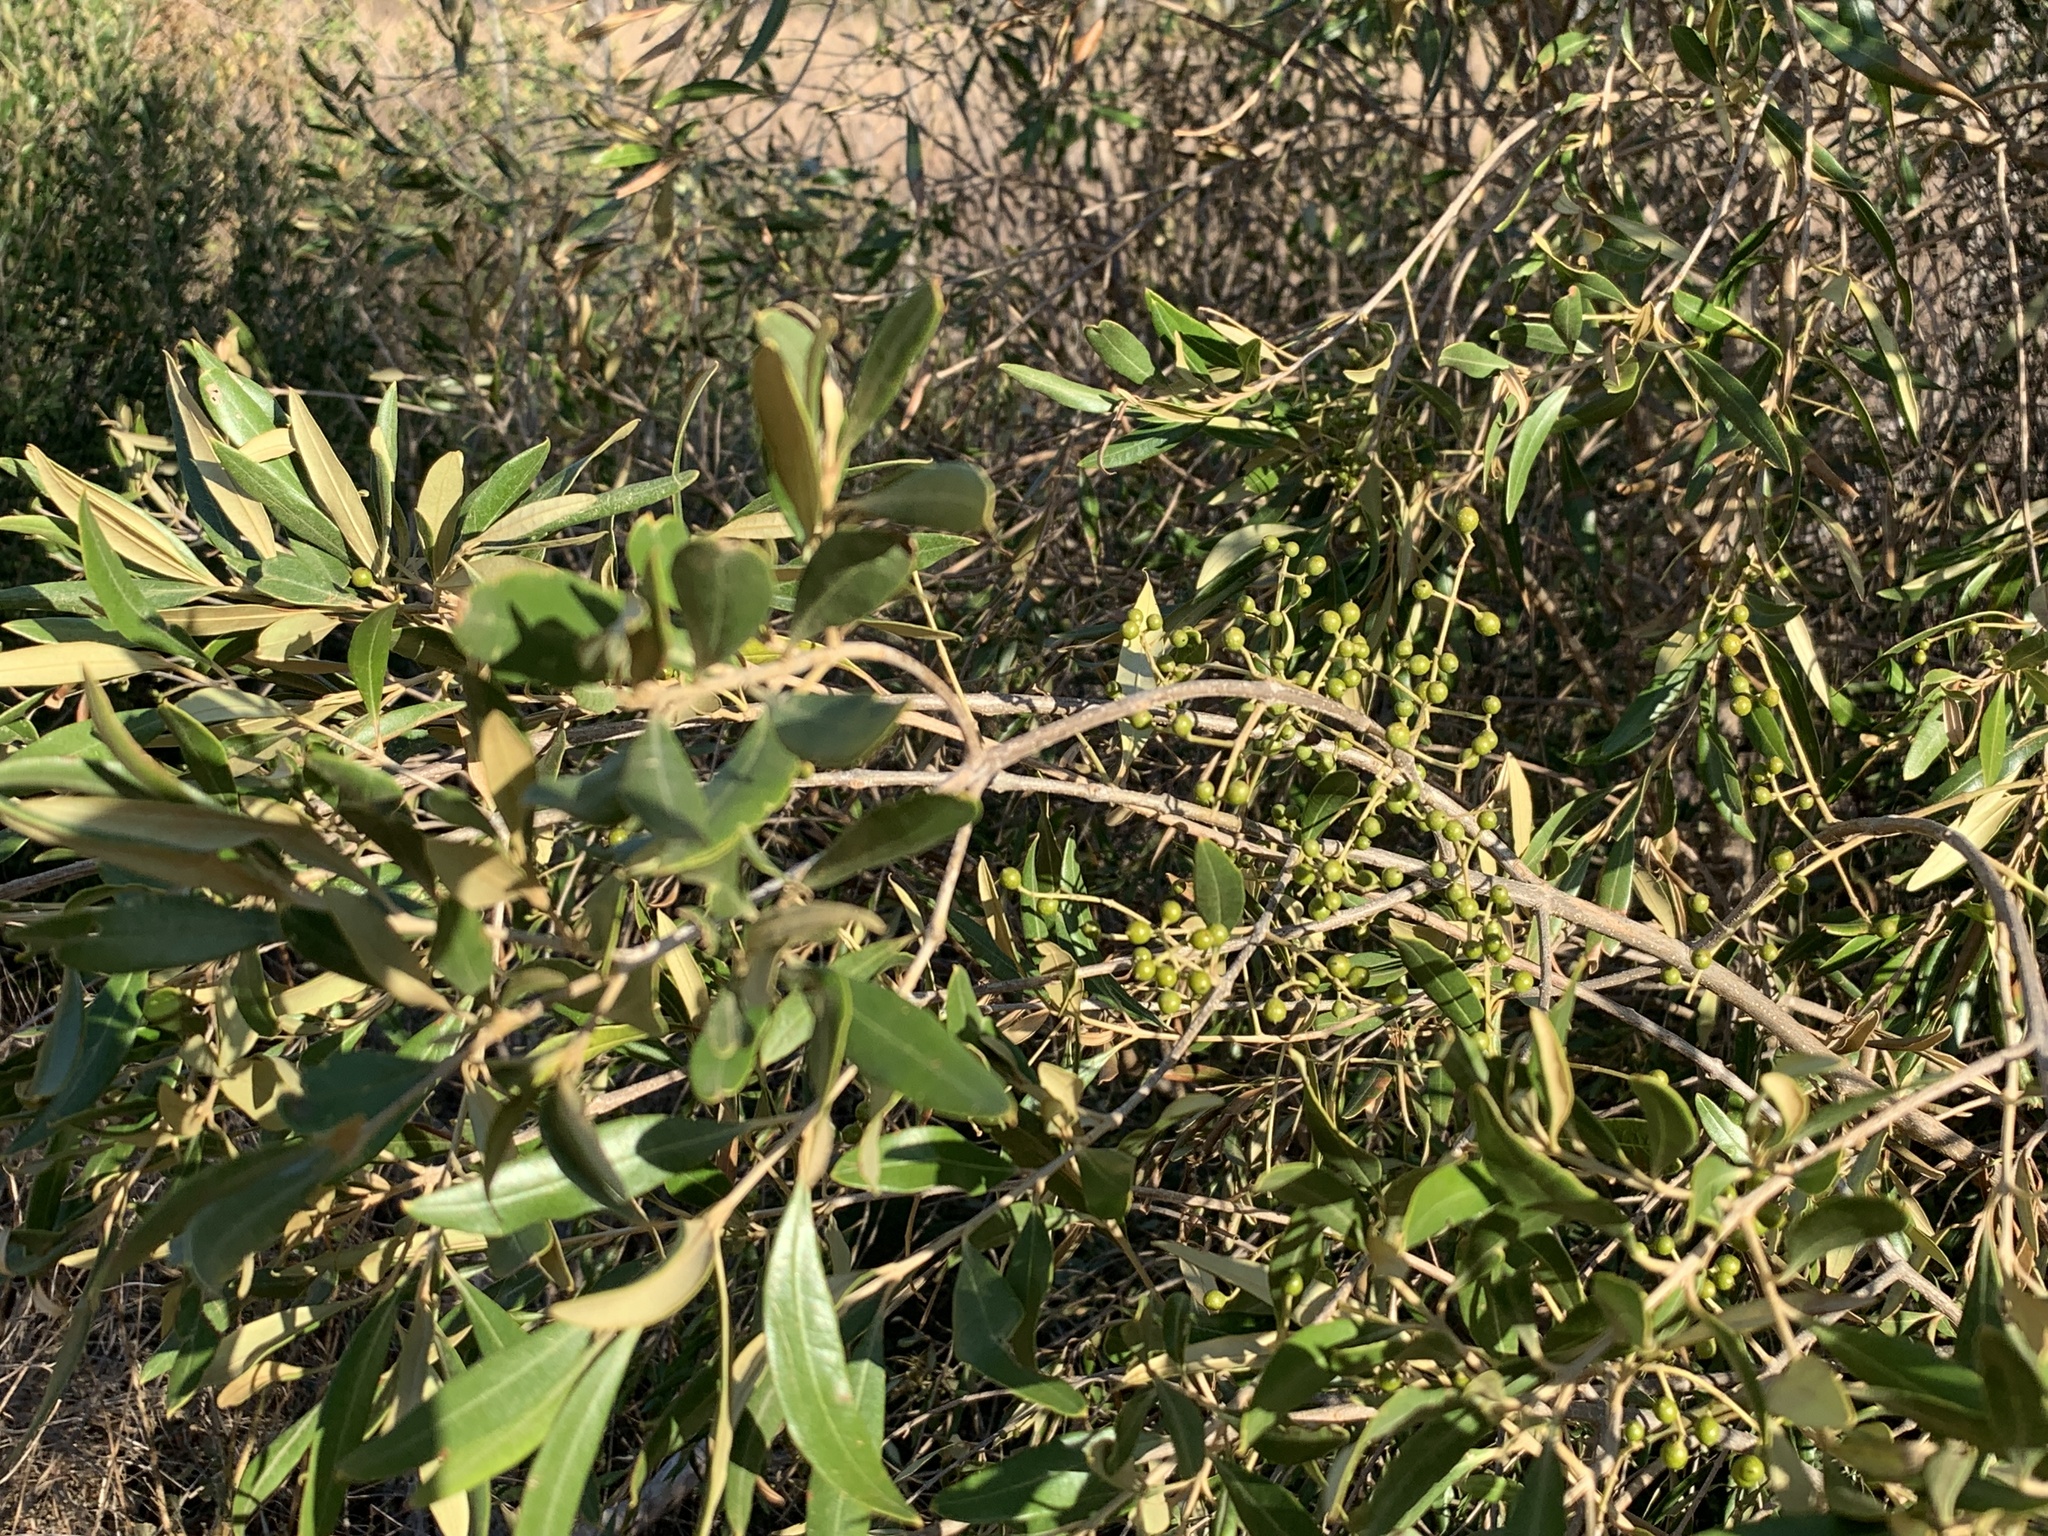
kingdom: Plantae
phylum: Tracheophyta
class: Magnoliopsida
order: Lamiales
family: Oleaceae
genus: Olea
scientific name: Olea europaea
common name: Olive
